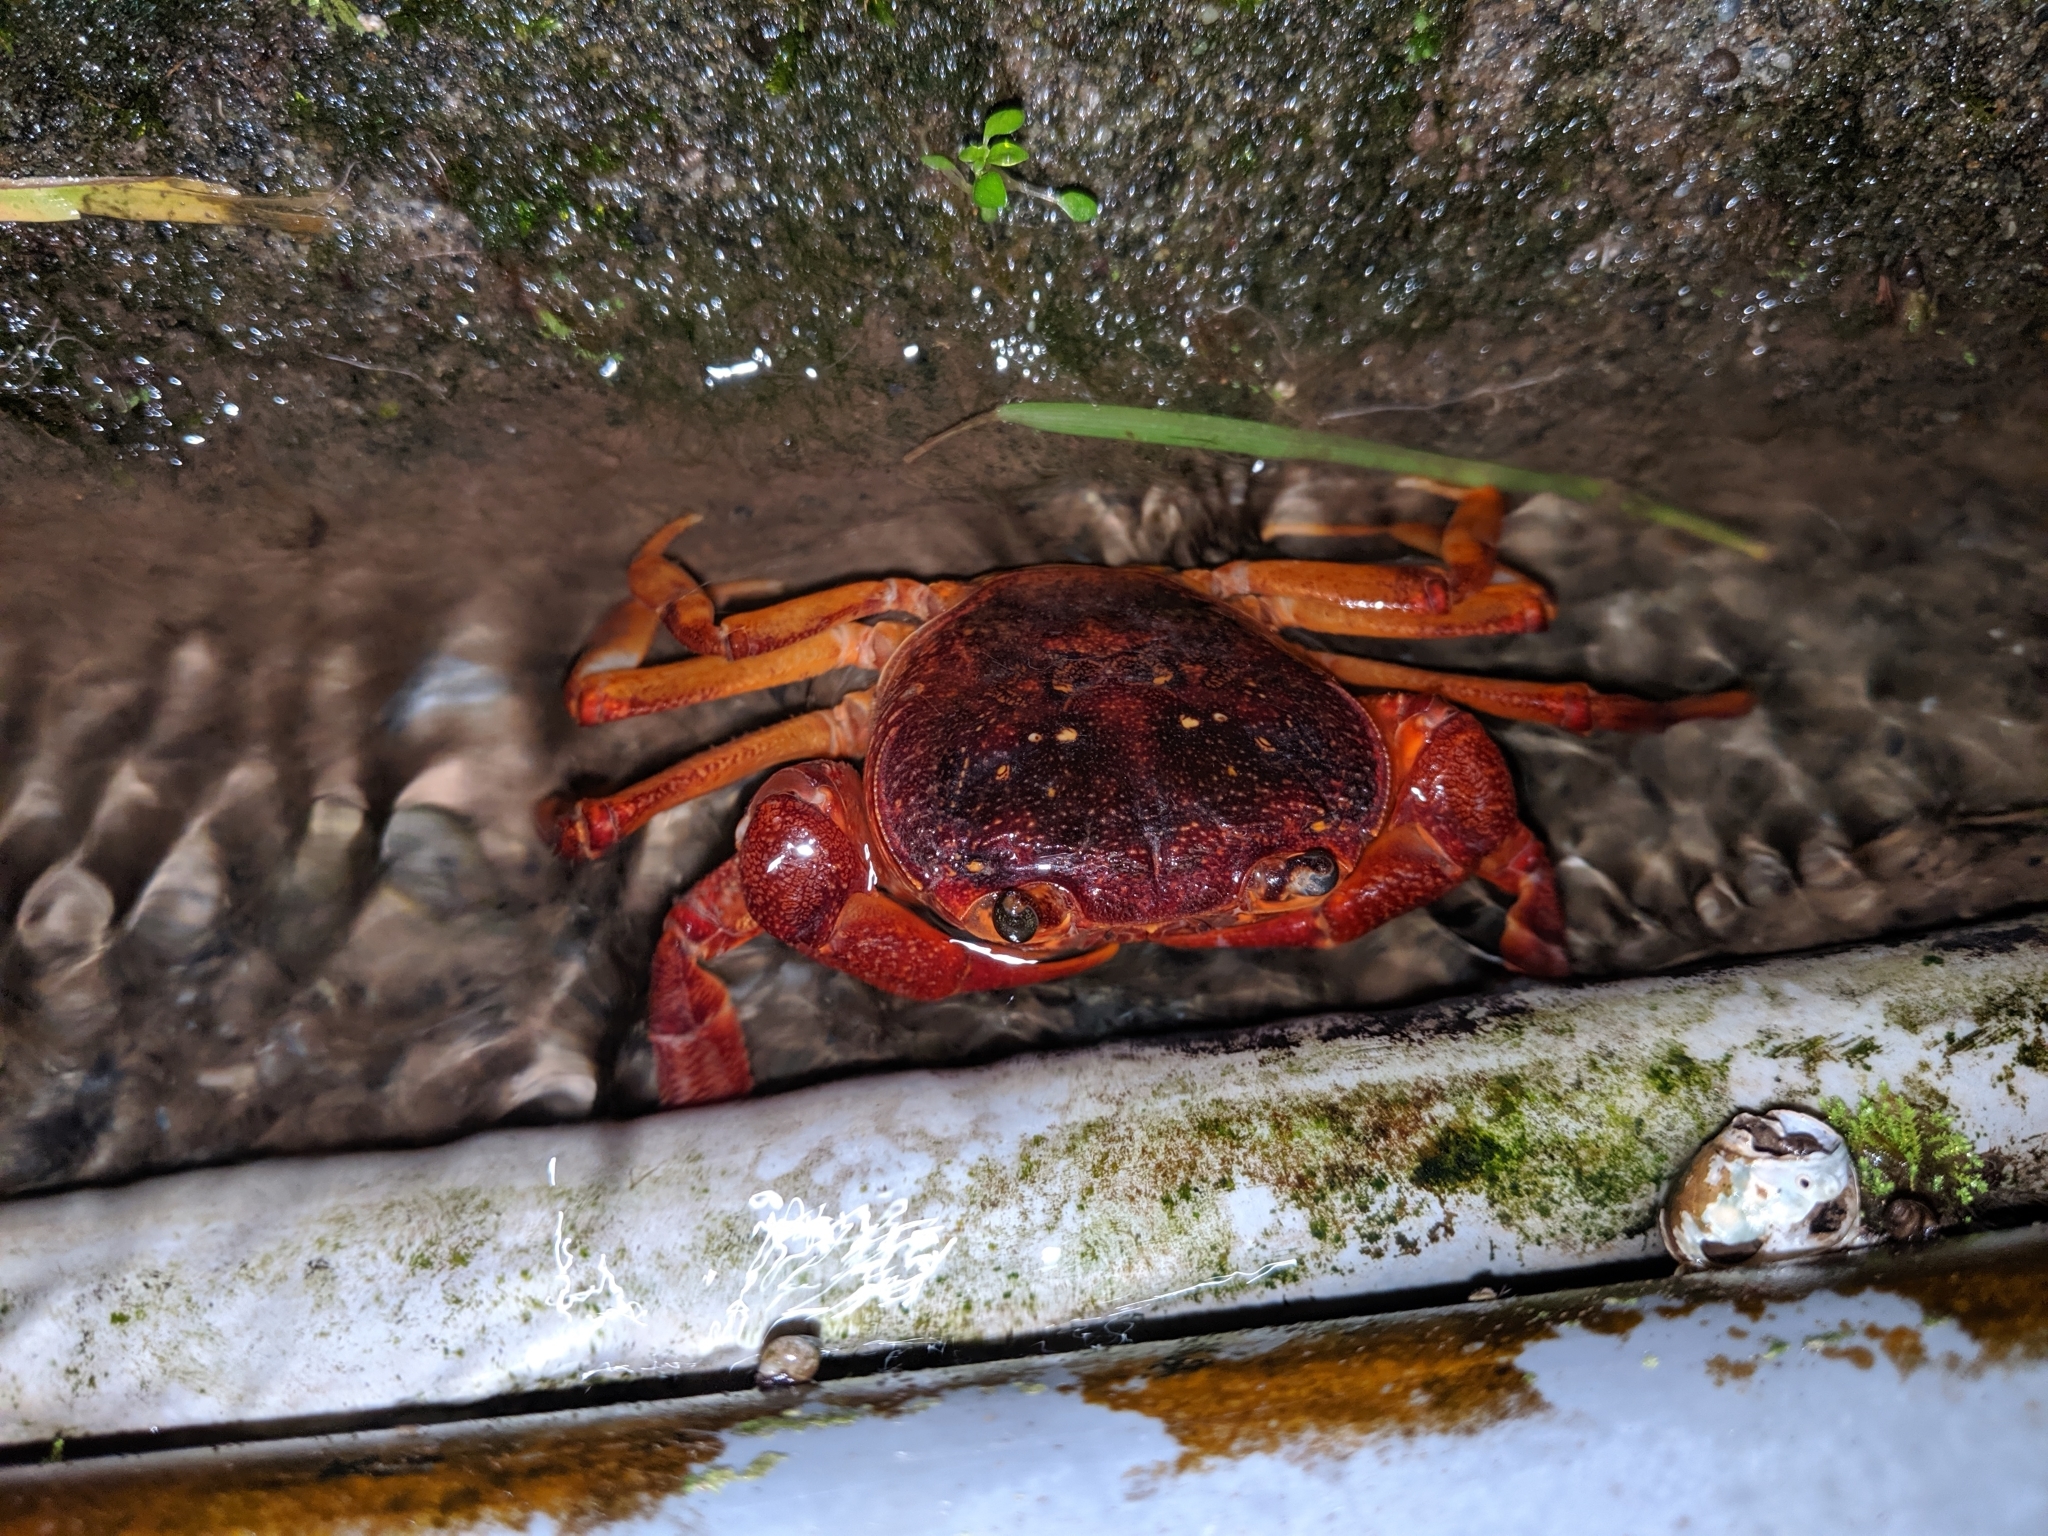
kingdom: Animalia
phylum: Arthropoda
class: Malacostraca
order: Decapoda
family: Potamidae
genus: Candidiopotamon
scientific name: Candidiopotamon rathbuni
